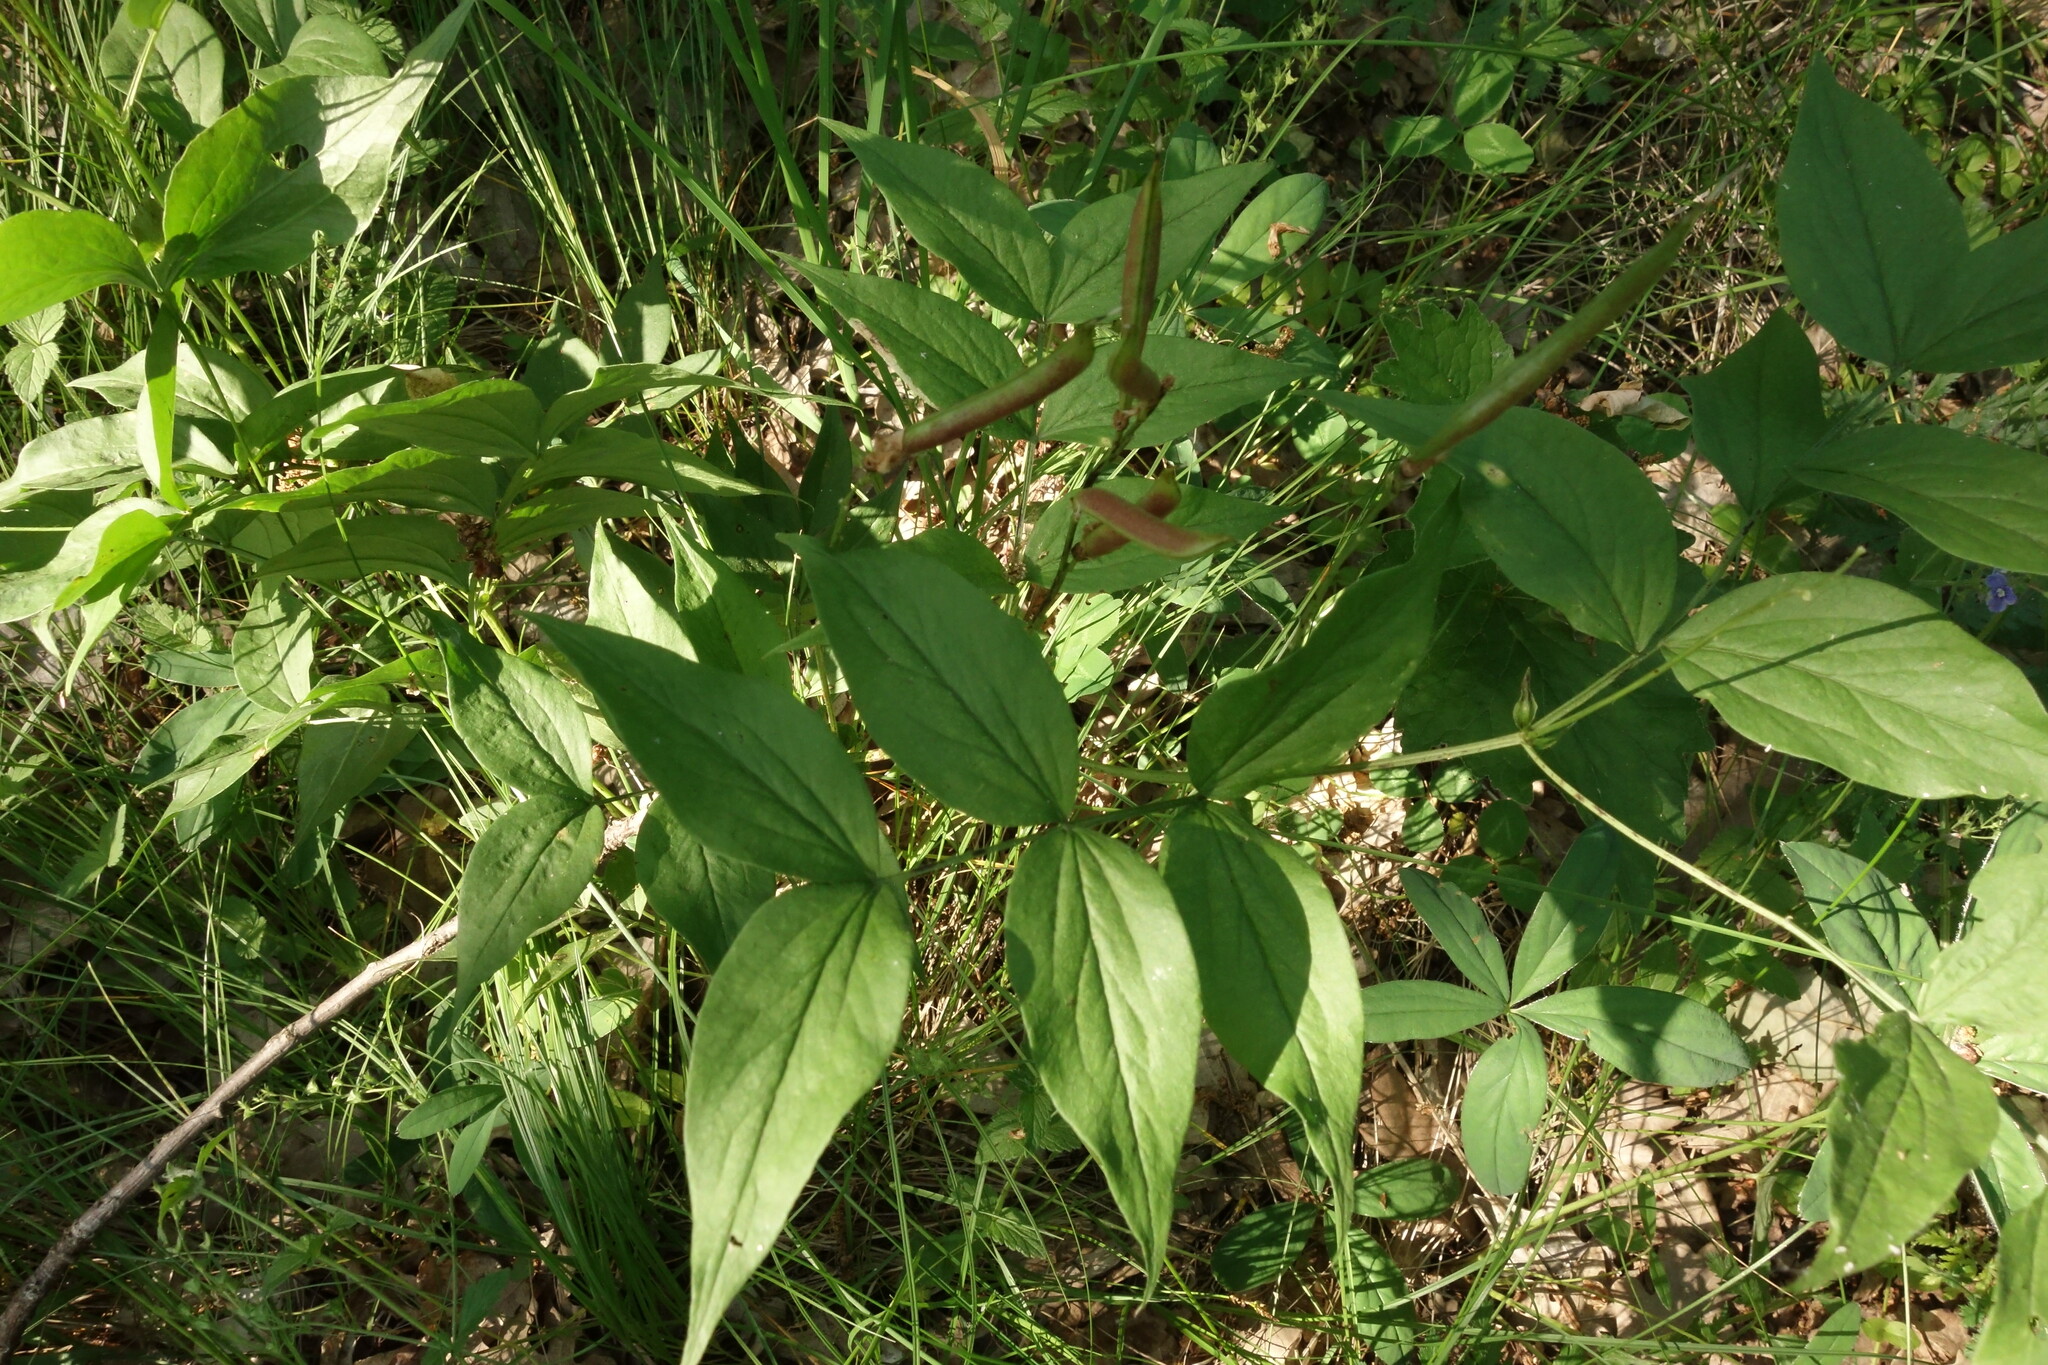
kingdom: Plantae
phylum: Tracheophyta
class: Magnoliopsida
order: Fabales
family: Fabaceae
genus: Lathyrus
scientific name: Lathyrus vernus
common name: Spring pea
